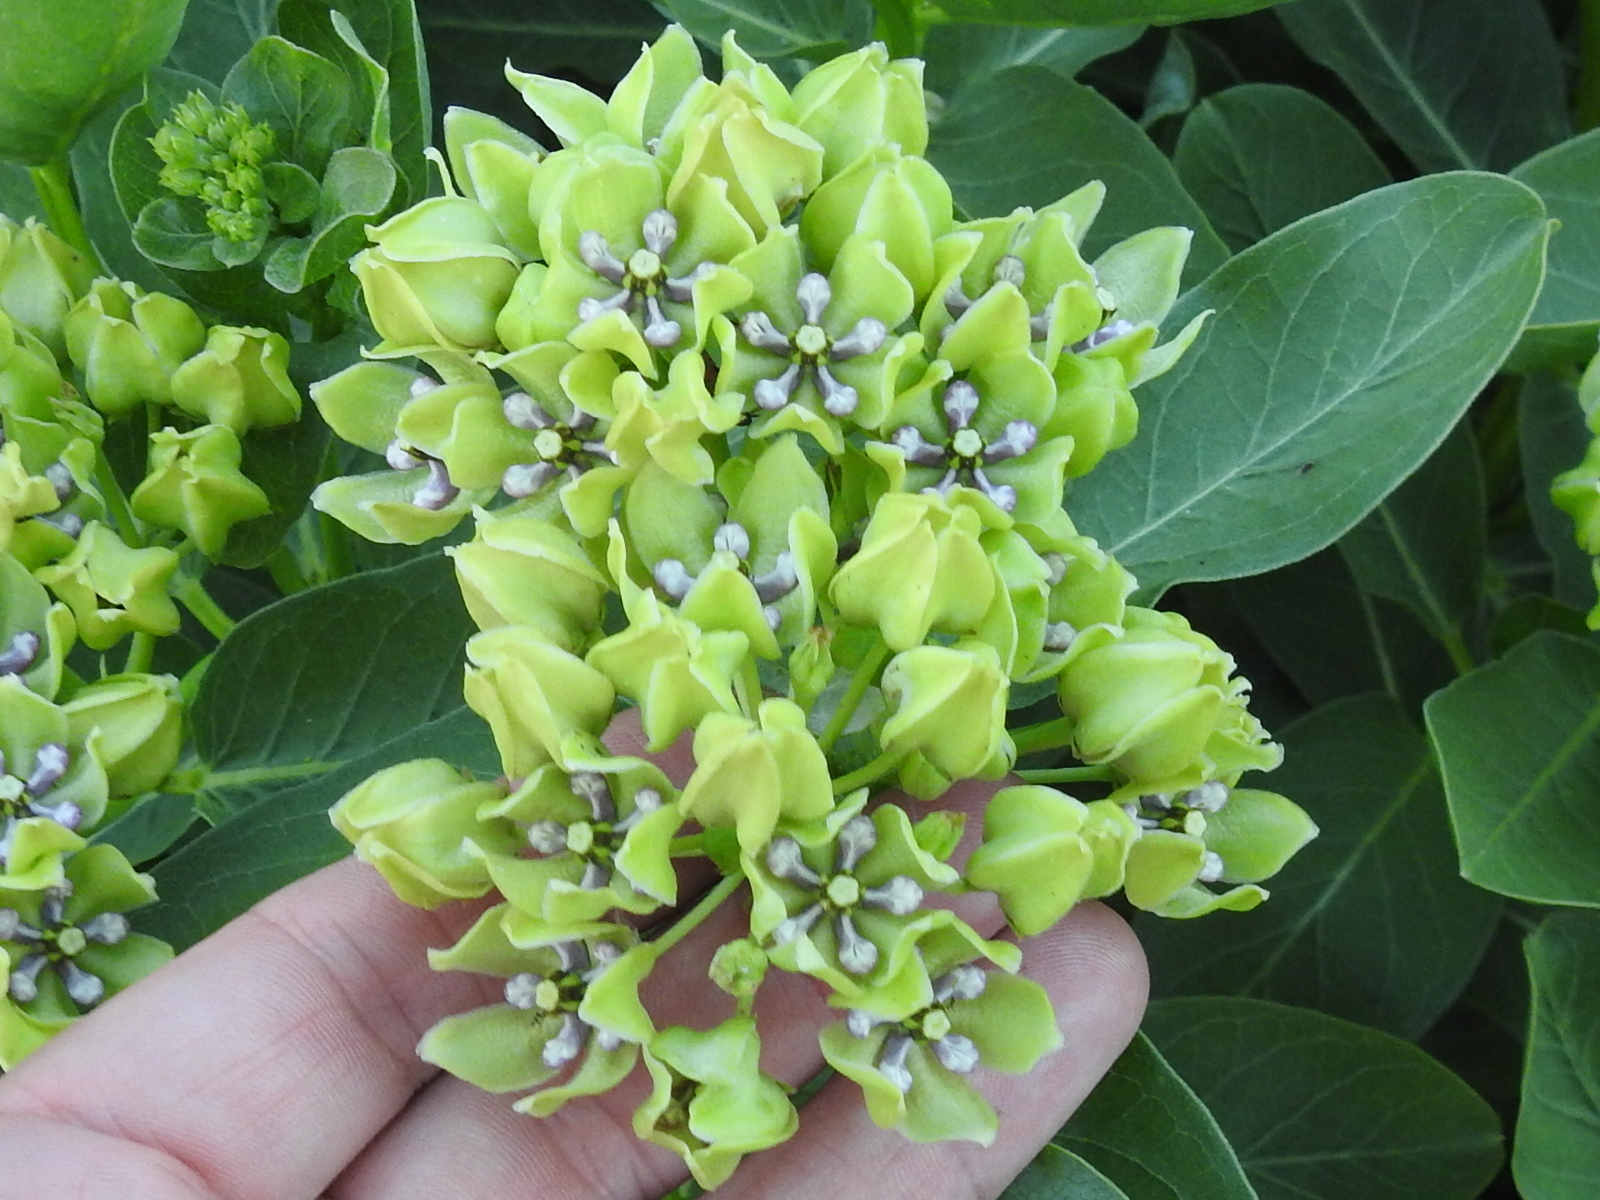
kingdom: Plantae
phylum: Tracheophyta
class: Magnoliopsida
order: Gentianales
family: Apocynaceae
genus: Asclepias
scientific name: Asclepias viridis
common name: Antelope-horns
